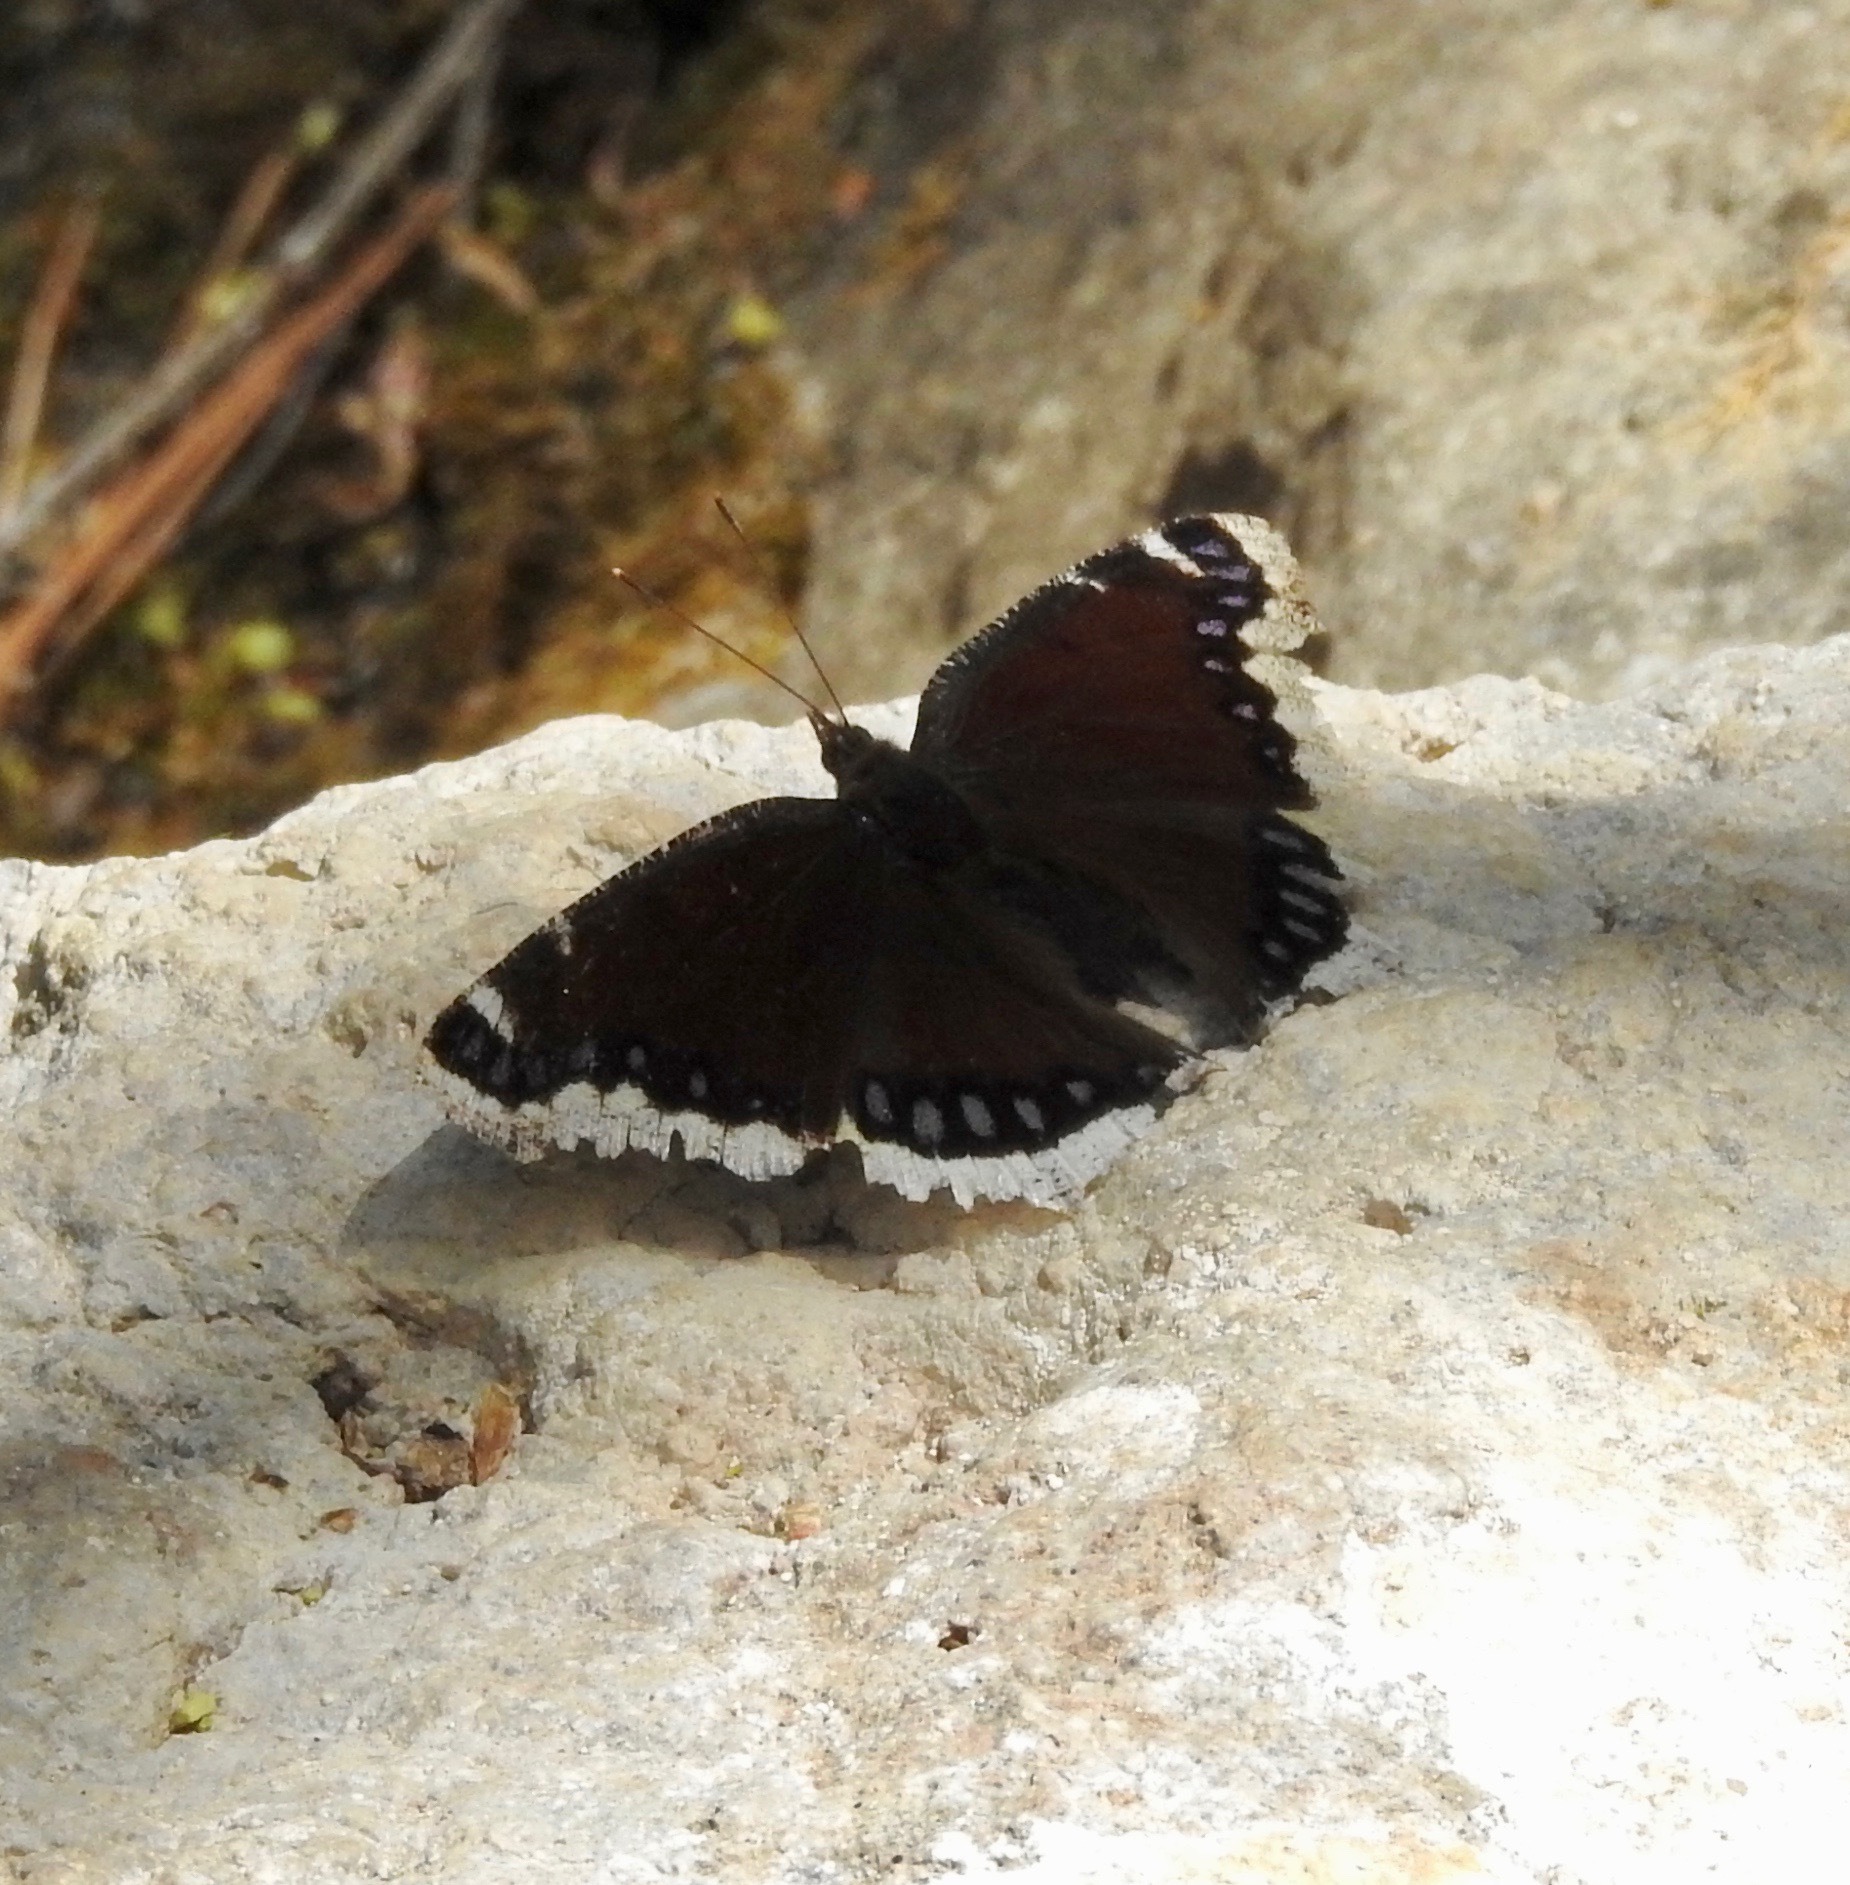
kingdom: Animalia
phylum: Arthropoda
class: Insecta
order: Lepidoptera
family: Nymphalidae
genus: Nymphalis
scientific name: Nymphalis antiopa
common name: Camberwell beauty
